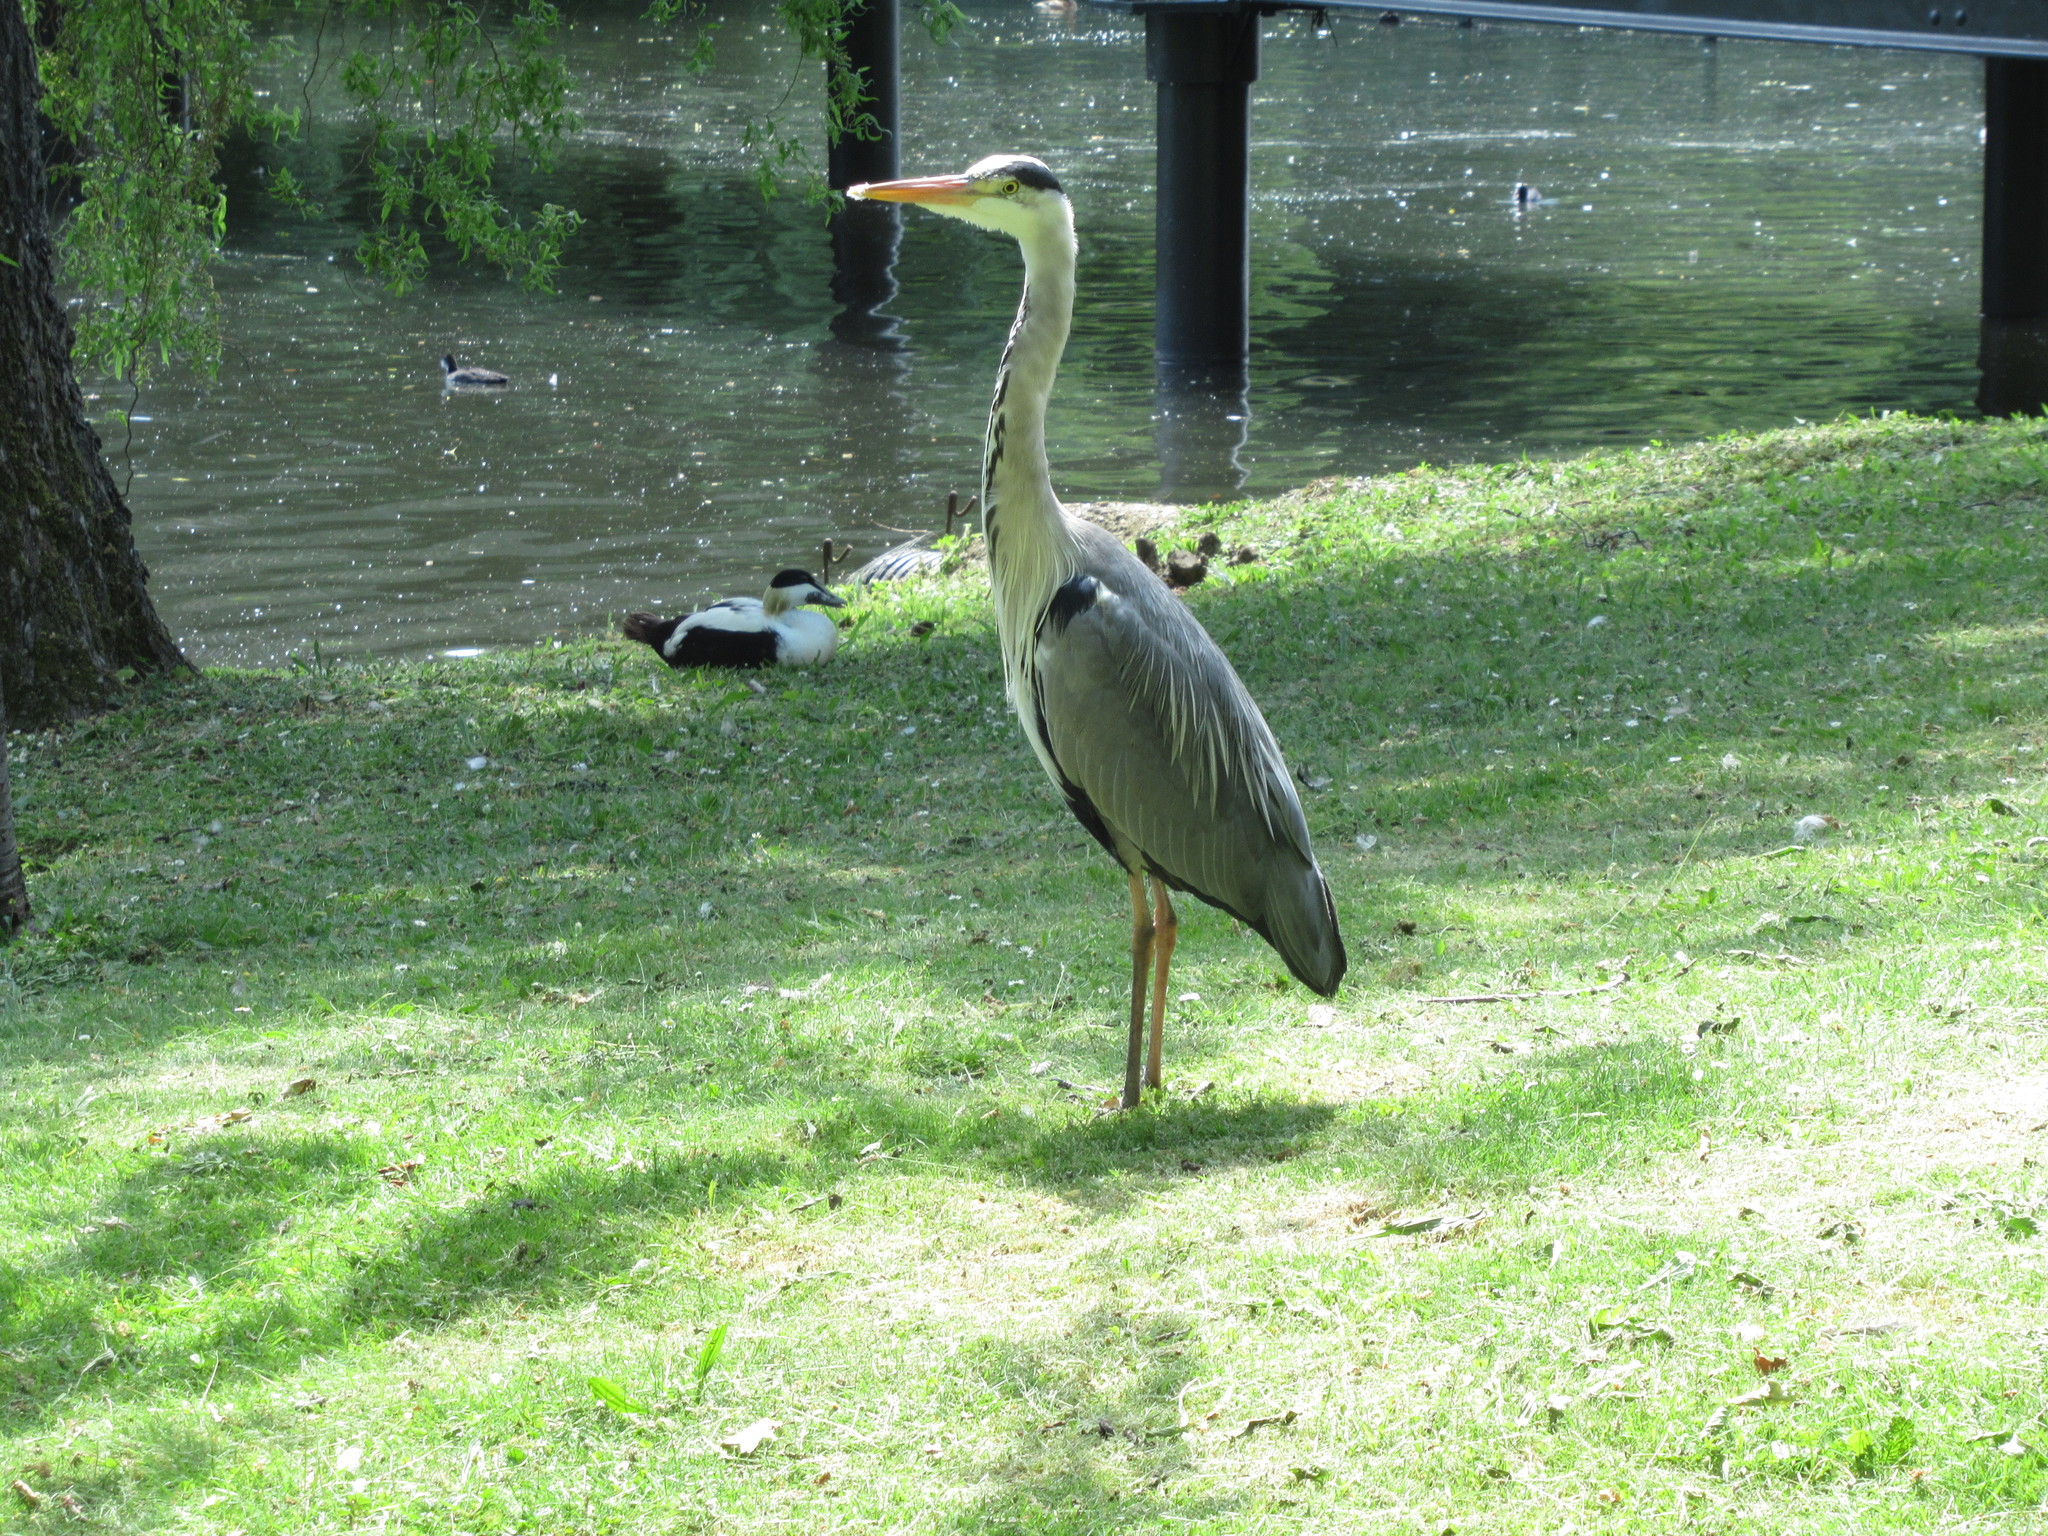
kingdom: Animalia
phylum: Chordata
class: Aves
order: Pelecaniformes
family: Ardeidae
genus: Ardea
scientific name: Ardea cinerea
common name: Grey heron
